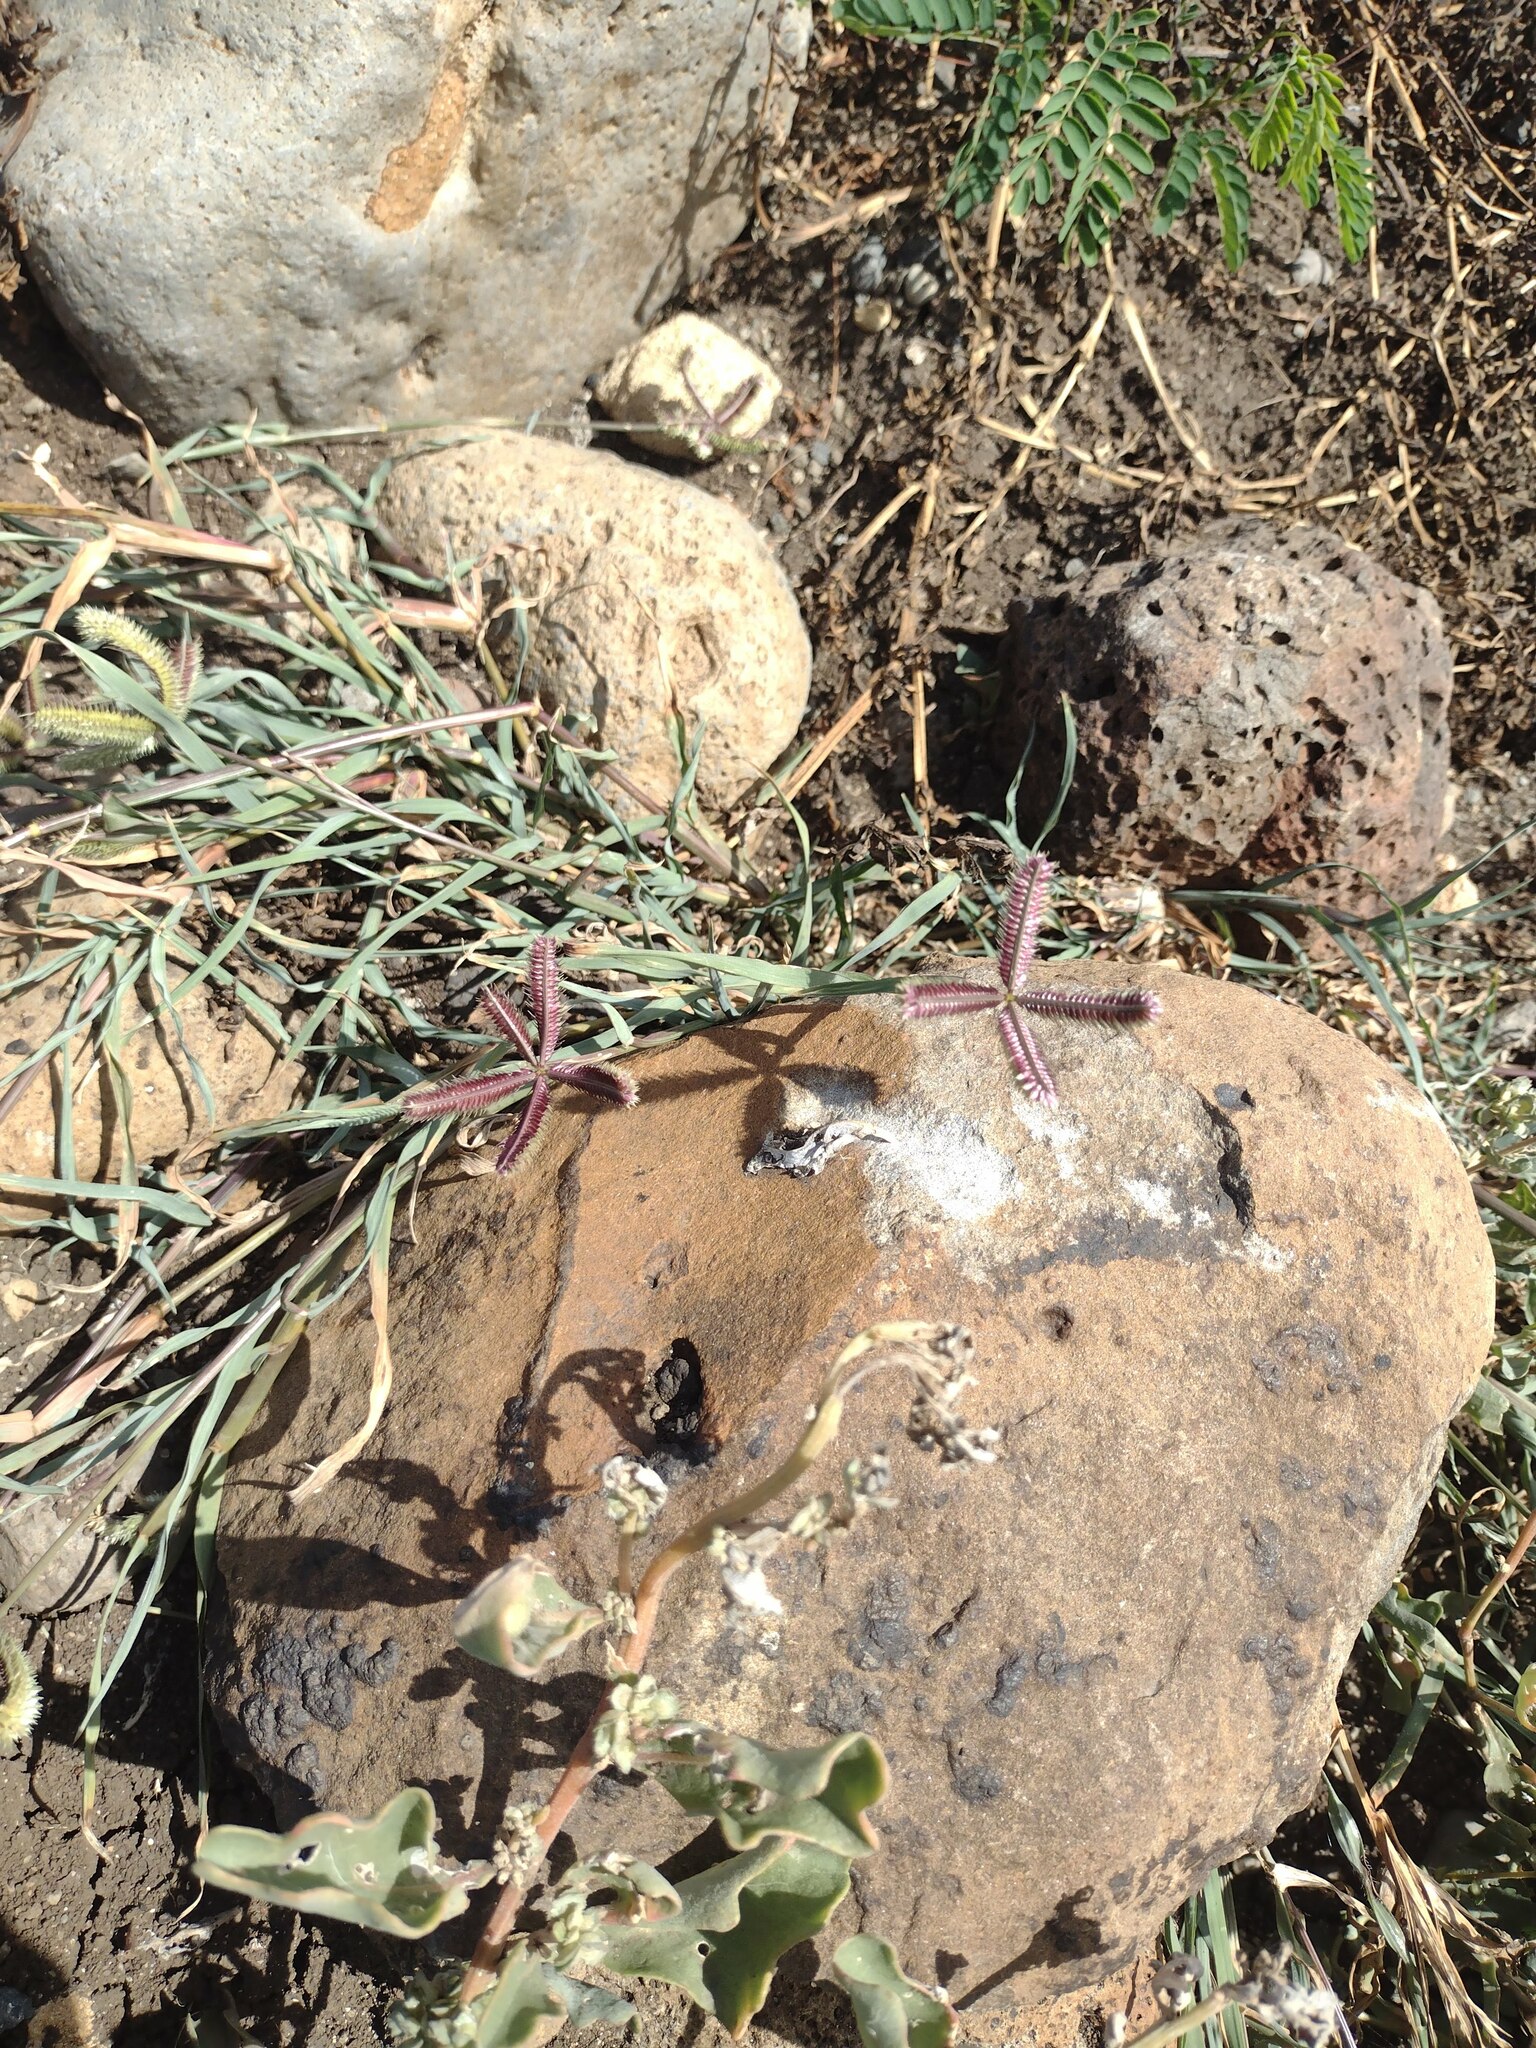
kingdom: Plantae
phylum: Tracheophyta
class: Liliopsida
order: Poales
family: Poaceae
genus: Dactyloctenium
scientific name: Dactyloctenium aegyptium
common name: Egyptian grass
